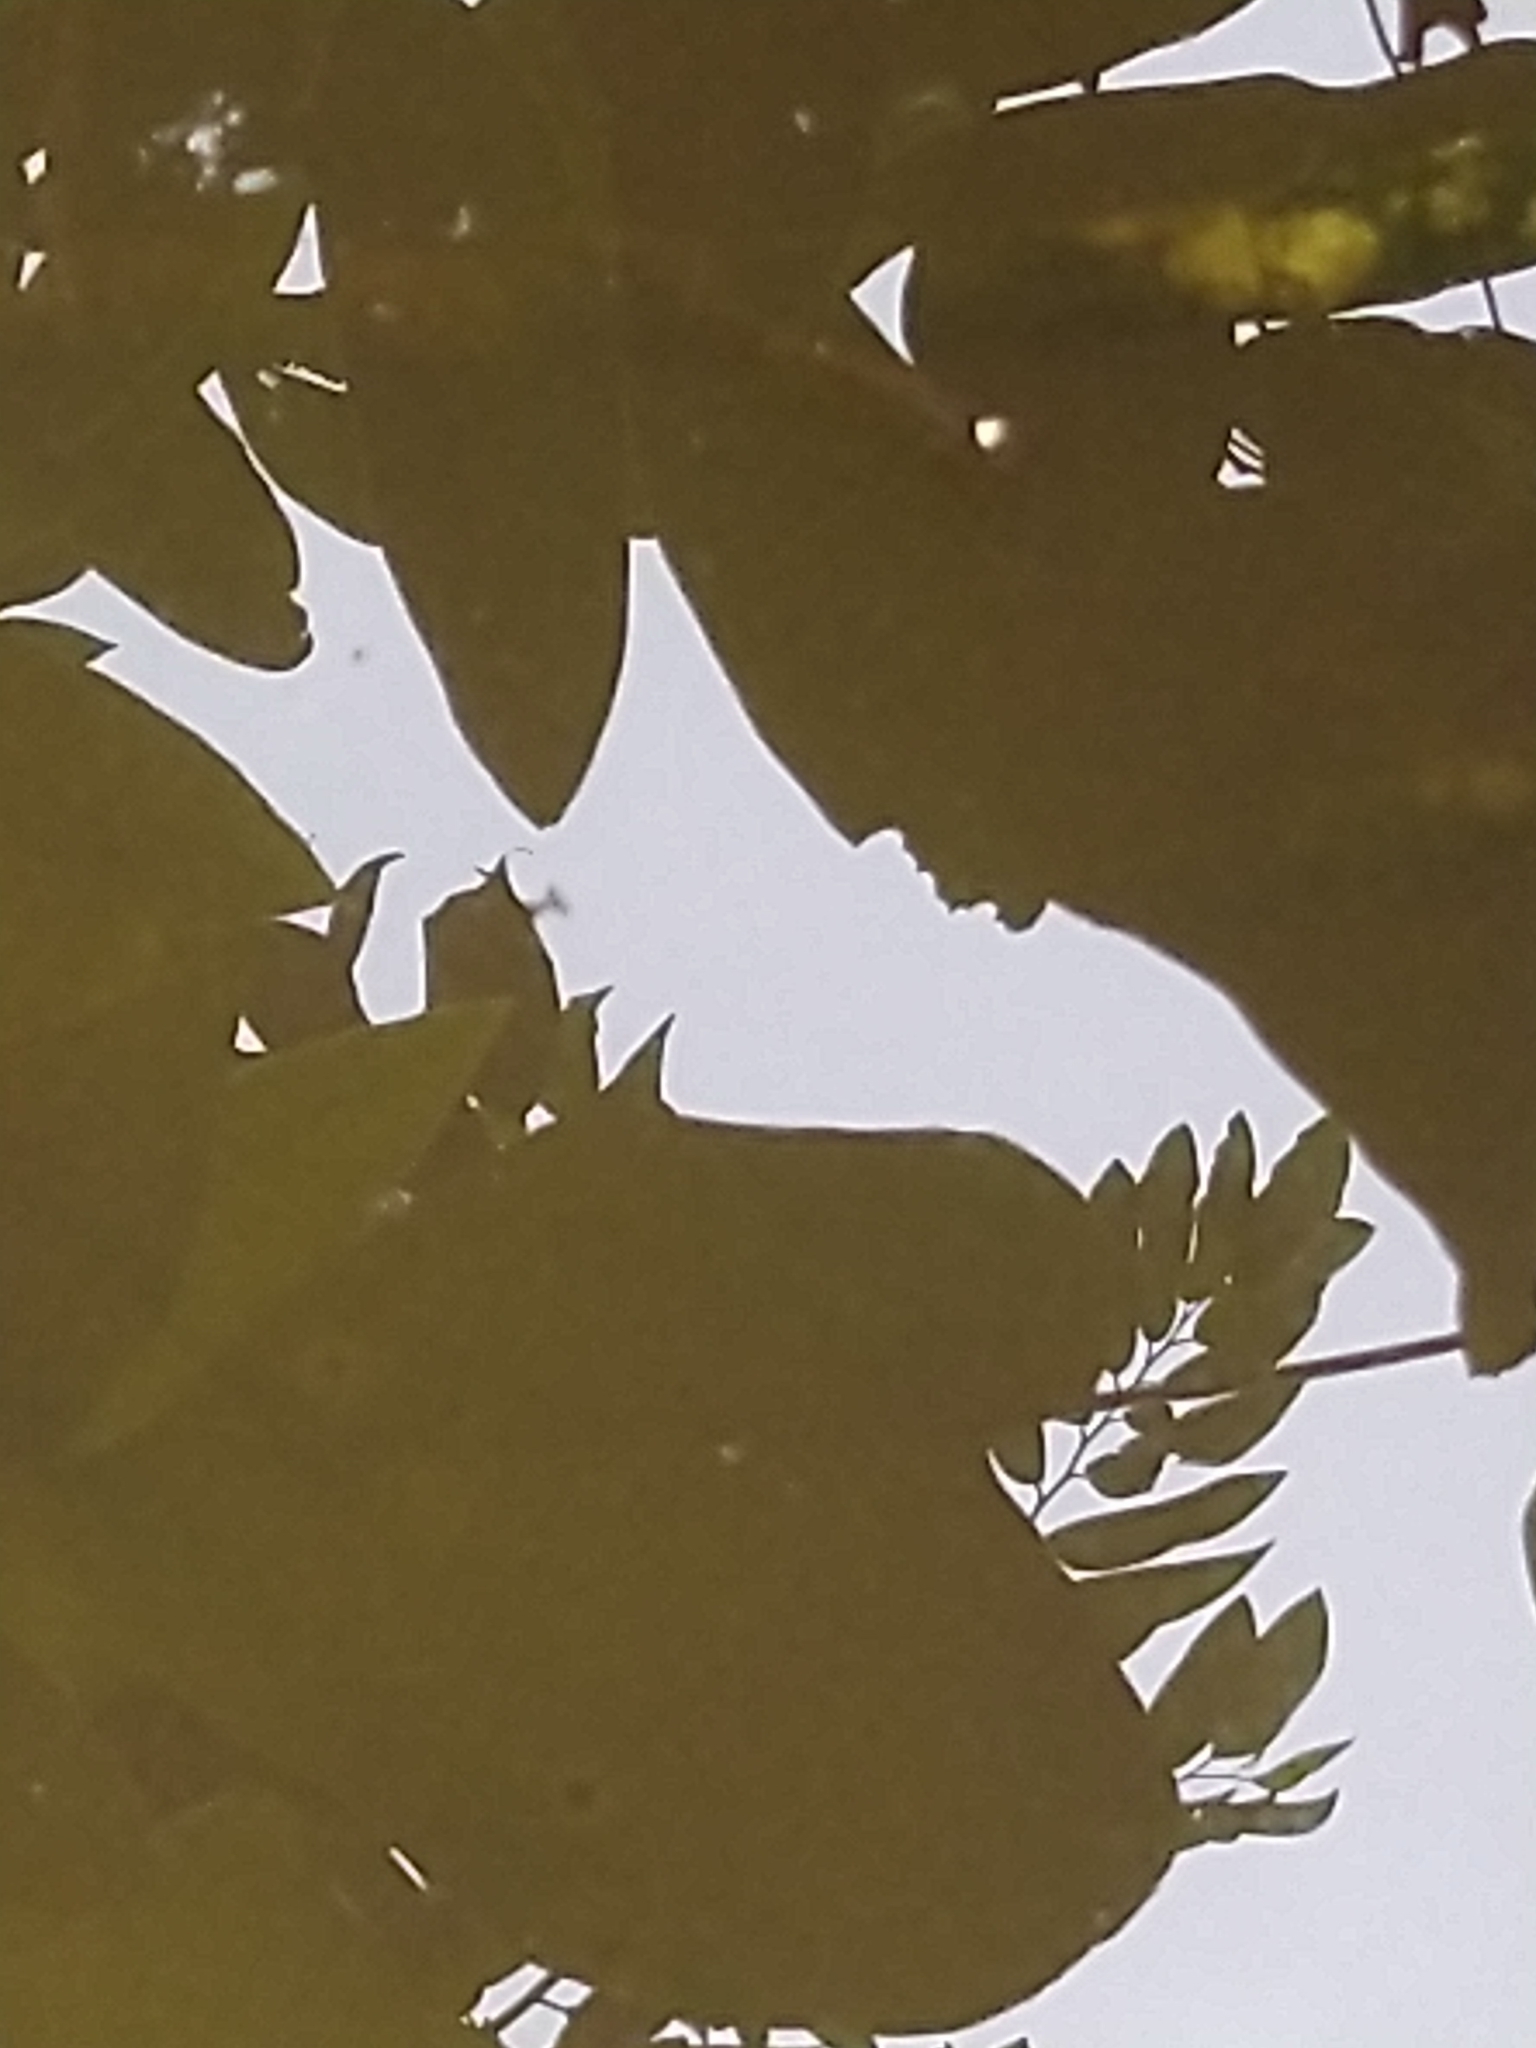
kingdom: Animalia
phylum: Chordata
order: Cyprinodontiformes
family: Aplocheilidae
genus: Aplocheilus
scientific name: Aplocheilus lineatus
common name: Striped panchax
